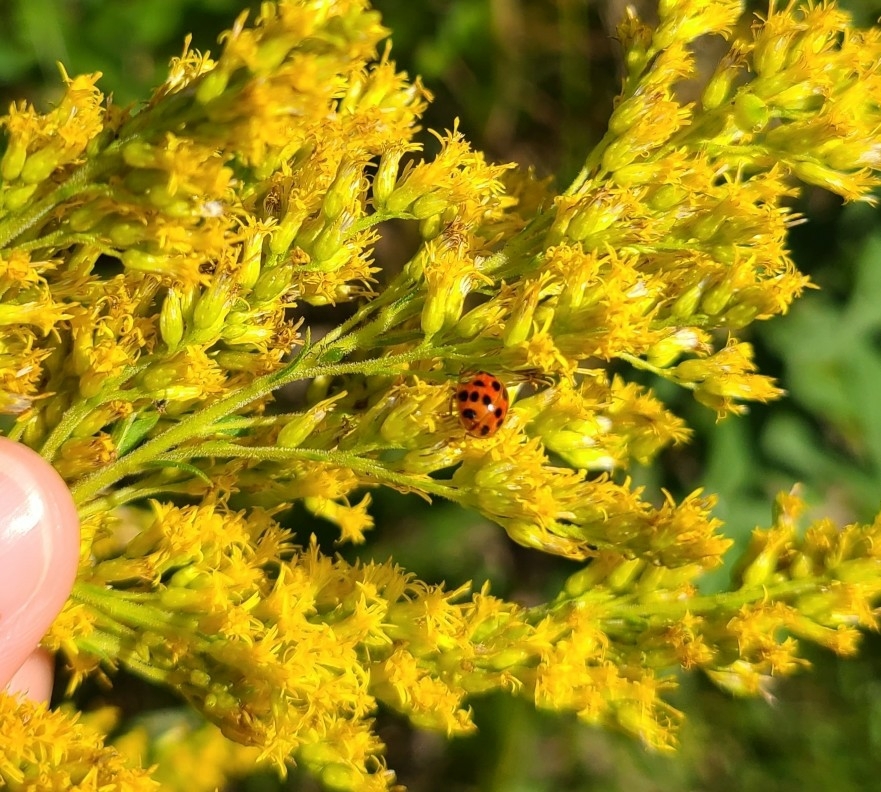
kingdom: Animalia
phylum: Arthropoda
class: Insecta
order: Coleoptera
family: Coccinellidae
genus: Harmonia
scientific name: Harmonia axyridis
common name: Harlequin ladybird
